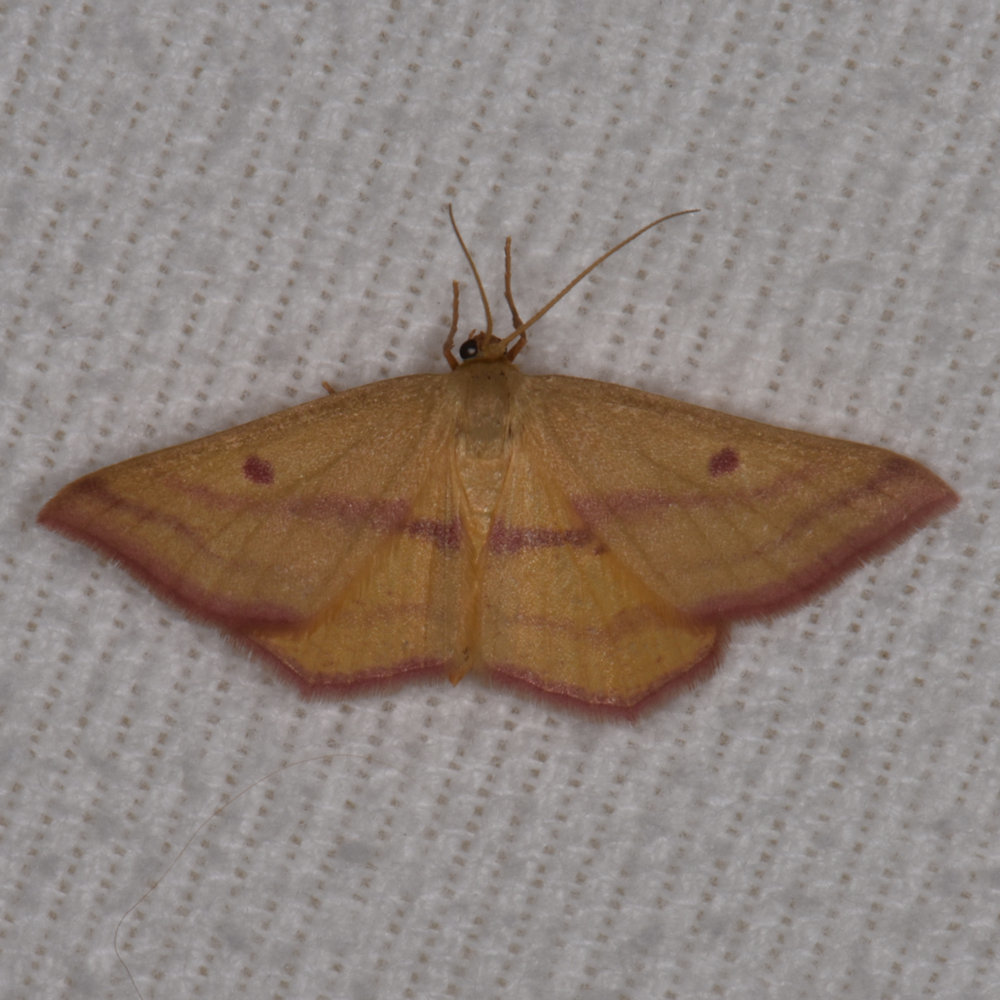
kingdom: Animalia
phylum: Arthropoda
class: Insecta
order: Lepidoptera
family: Geometridae
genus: Haematopis
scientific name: Haematopis grataria
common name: Chickweed geometer
